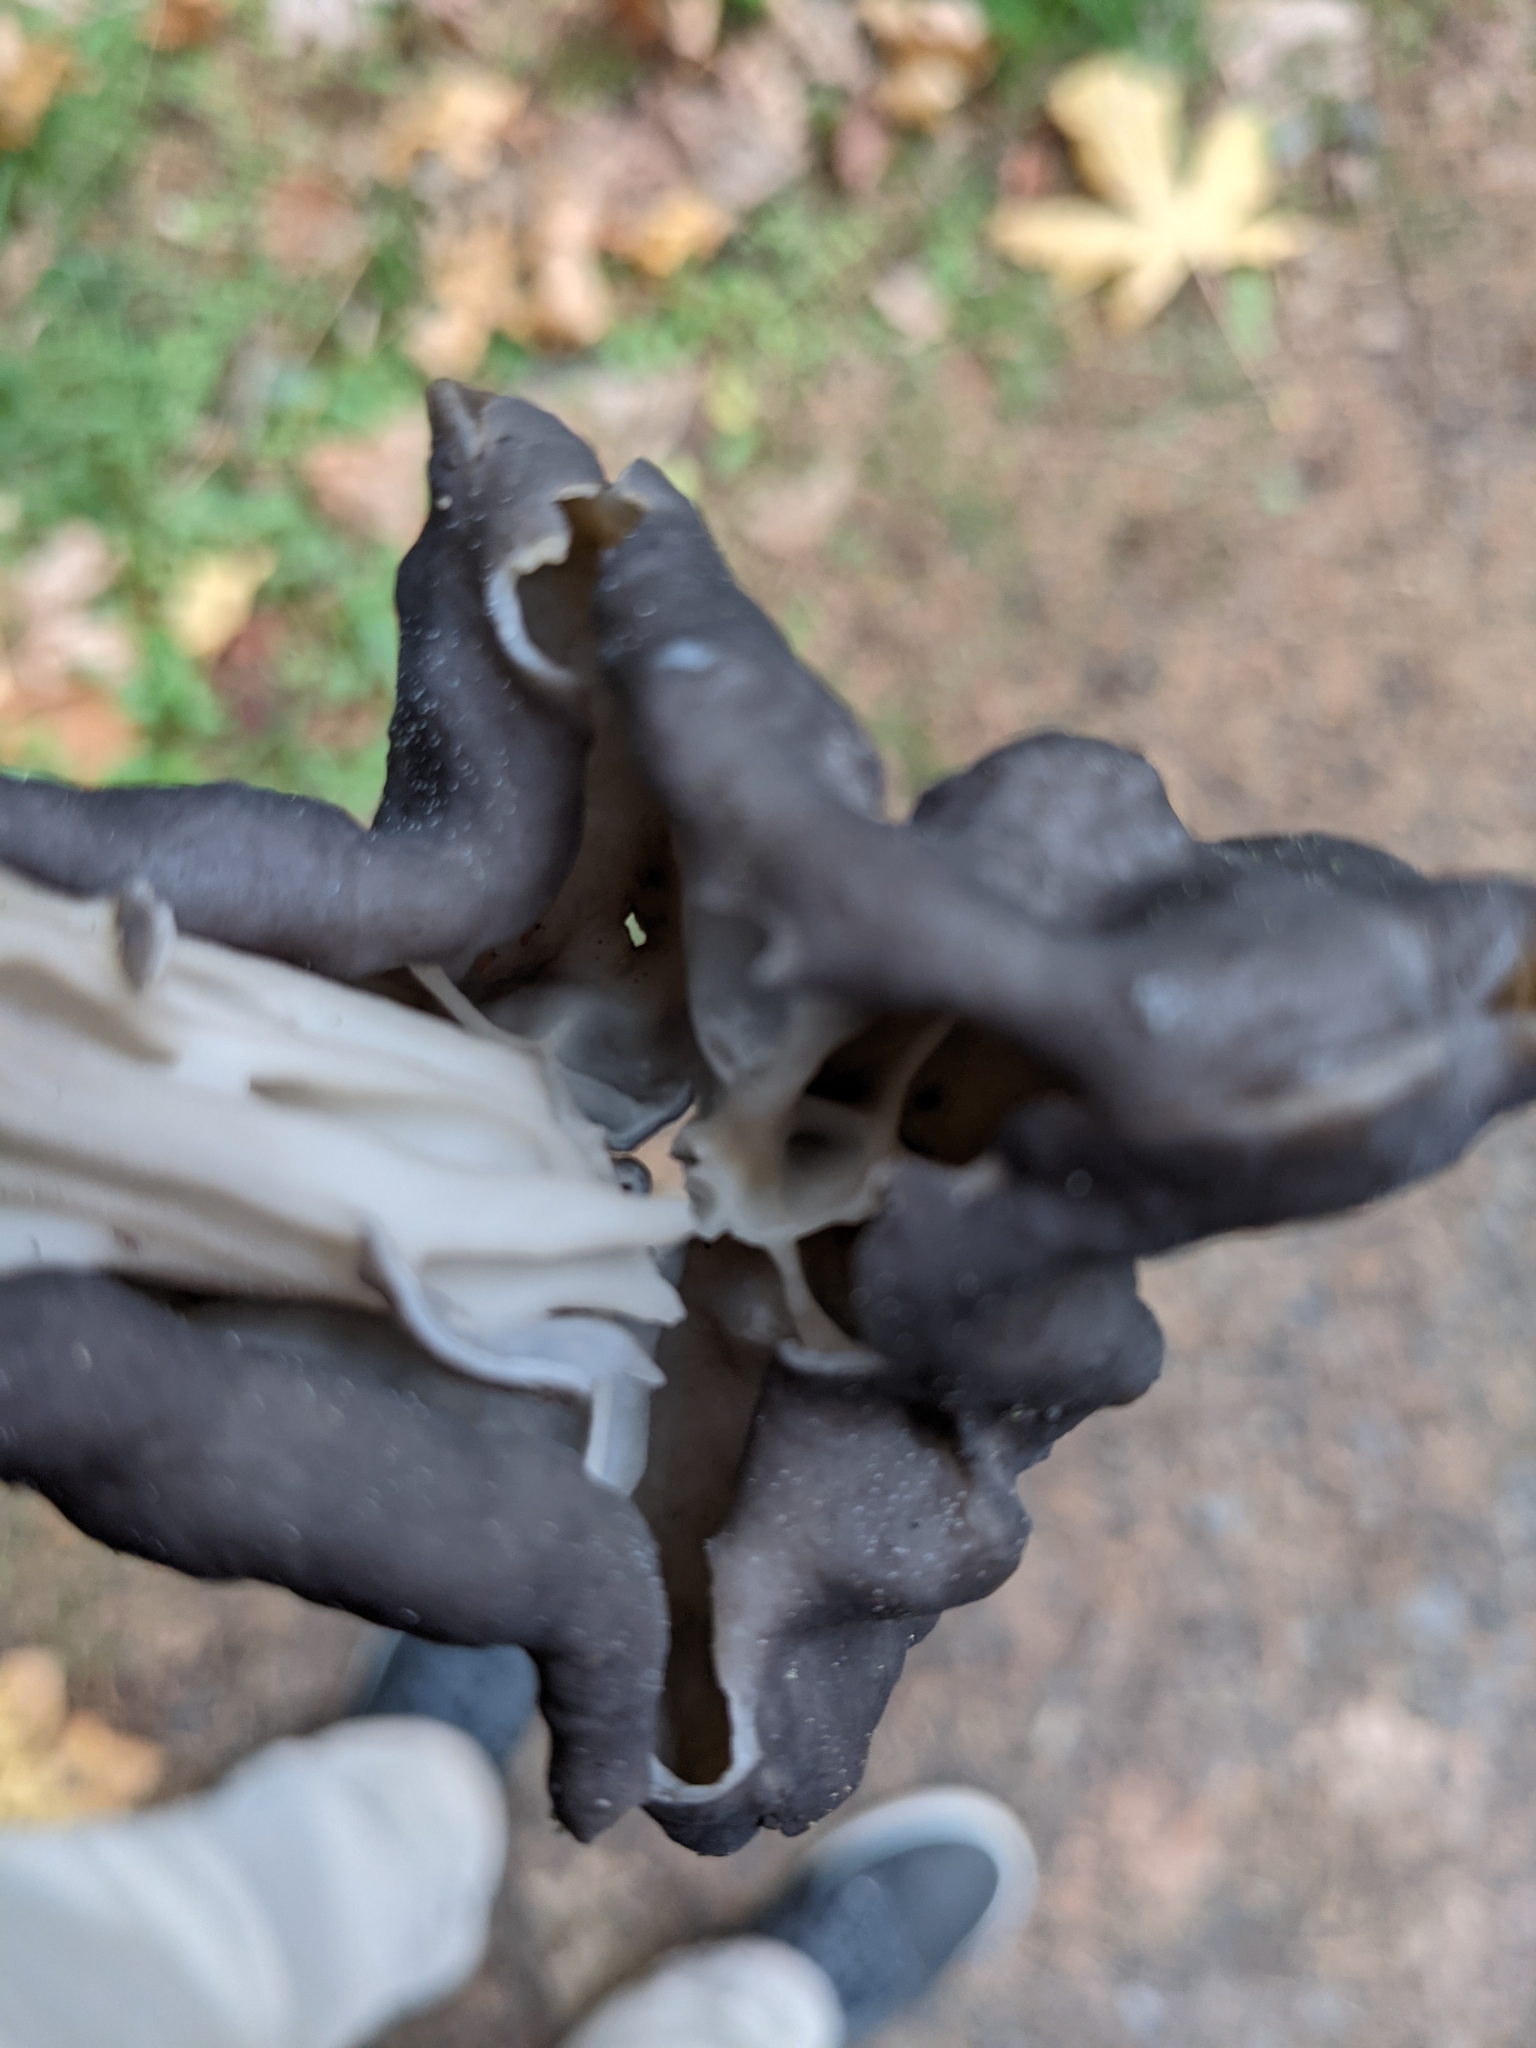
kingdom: Fungi
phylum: Ascomycota
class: Pezizomycetes
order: Pezizales
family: Helvellaceae
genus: Helvella
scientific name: Helvella vespertina
